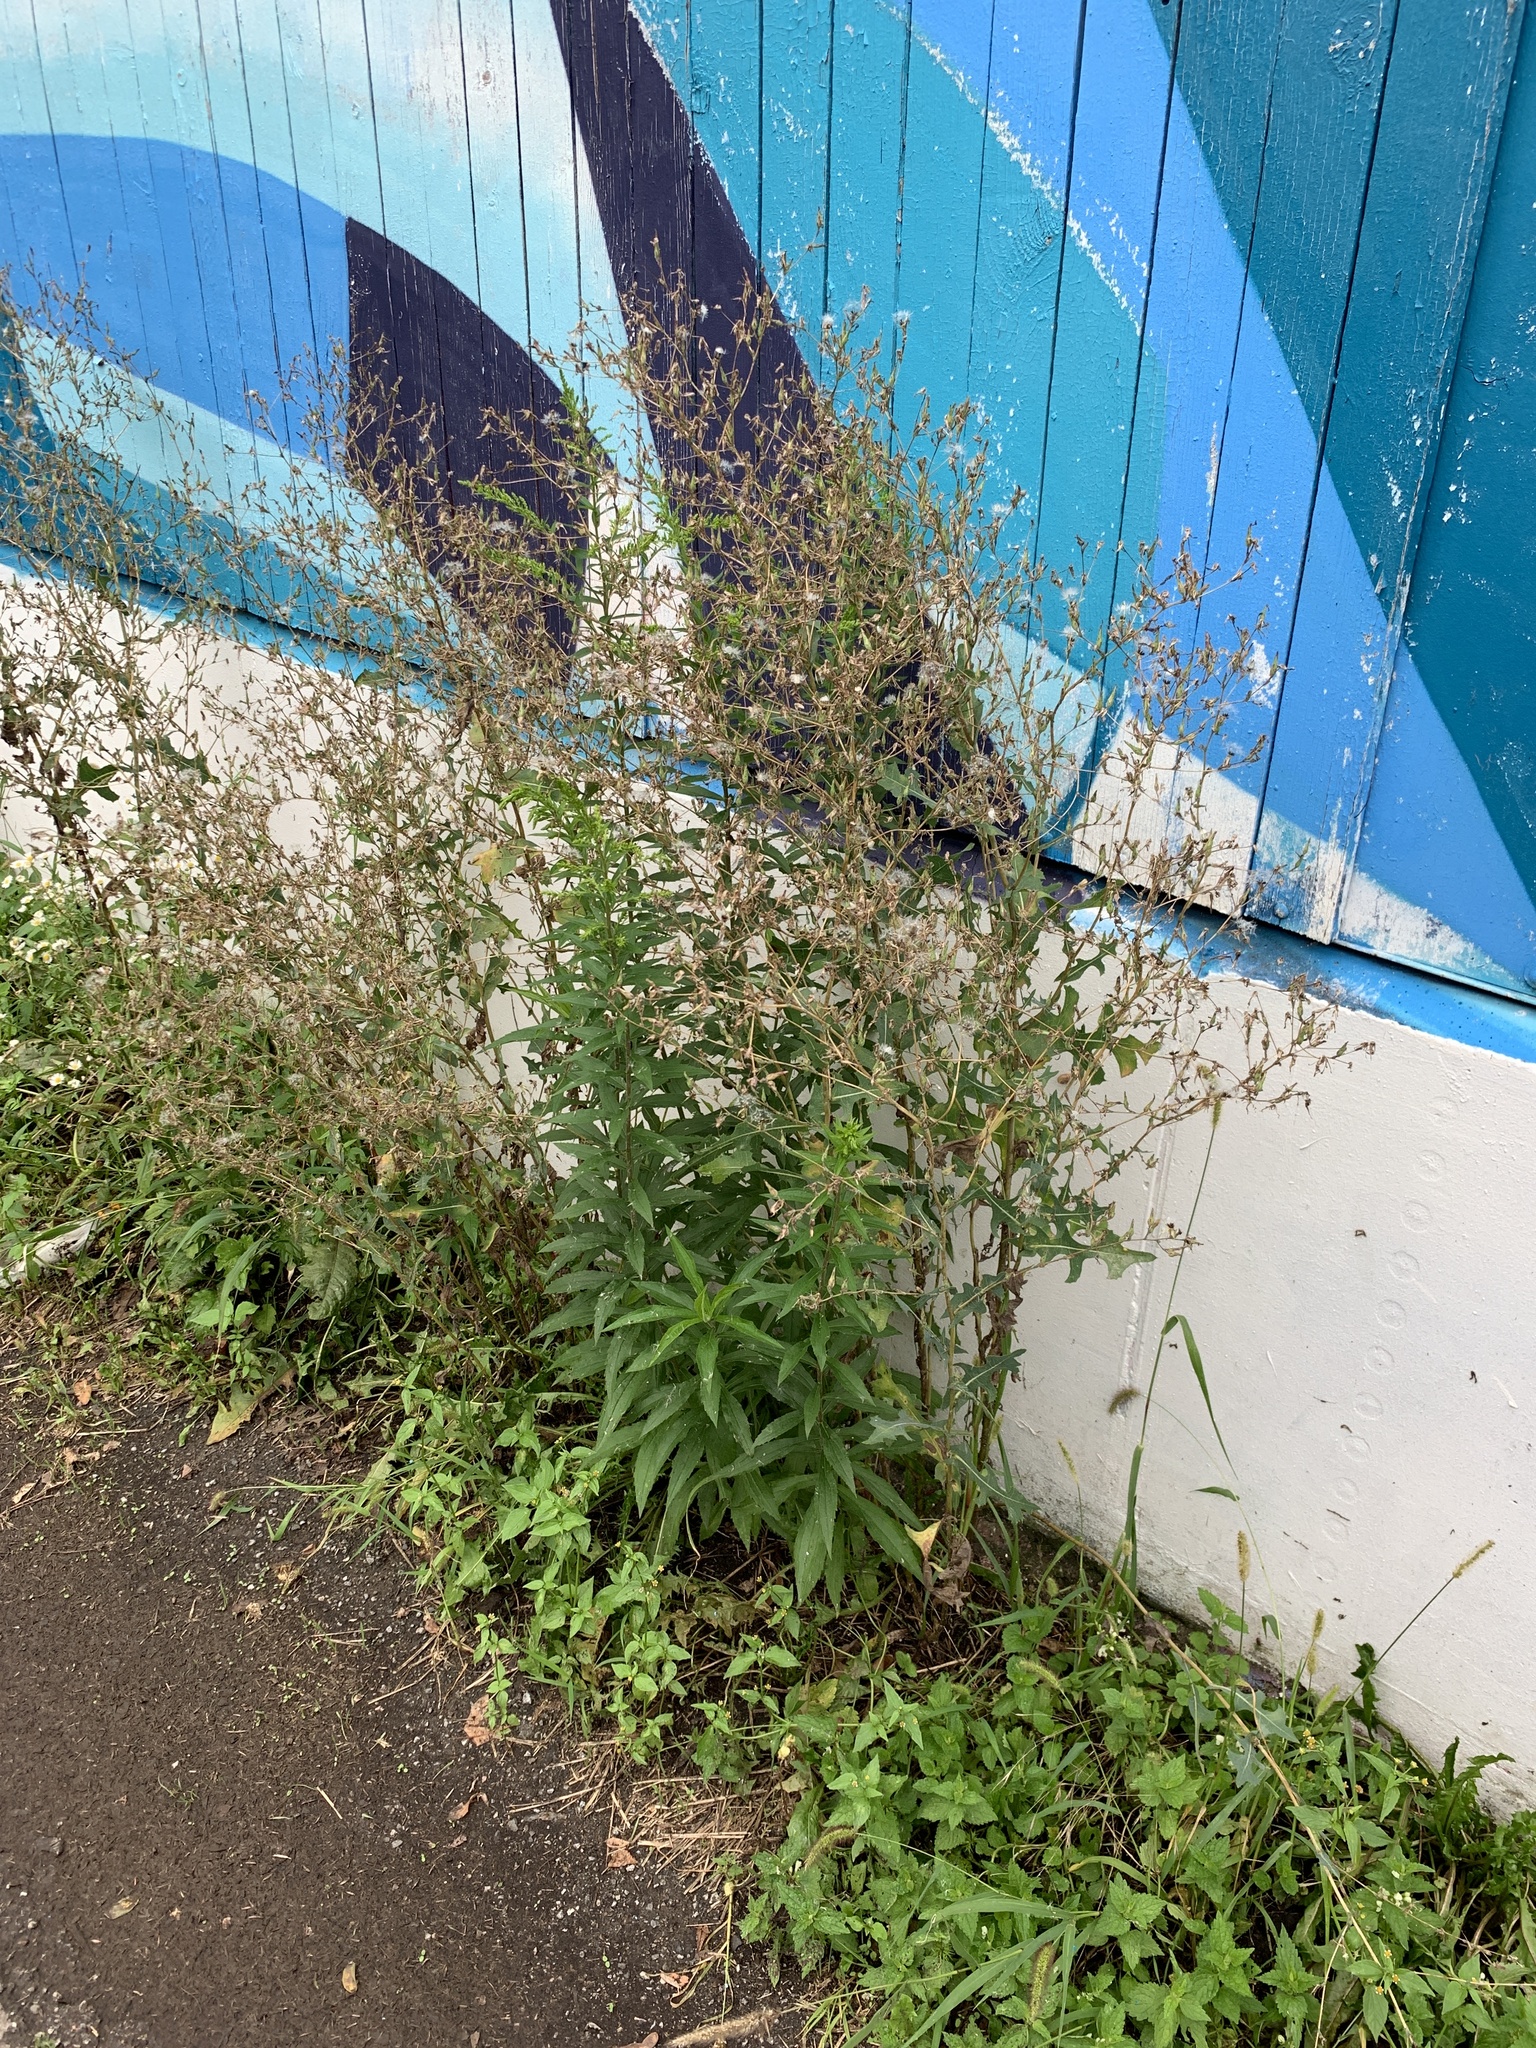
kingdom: Plantae
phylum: Tracheophyta
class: Magnoliopsida
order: Asterales
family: Asteraceae
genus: Lactuca
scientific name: Lactuca serriola
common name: Prickly lettuce
